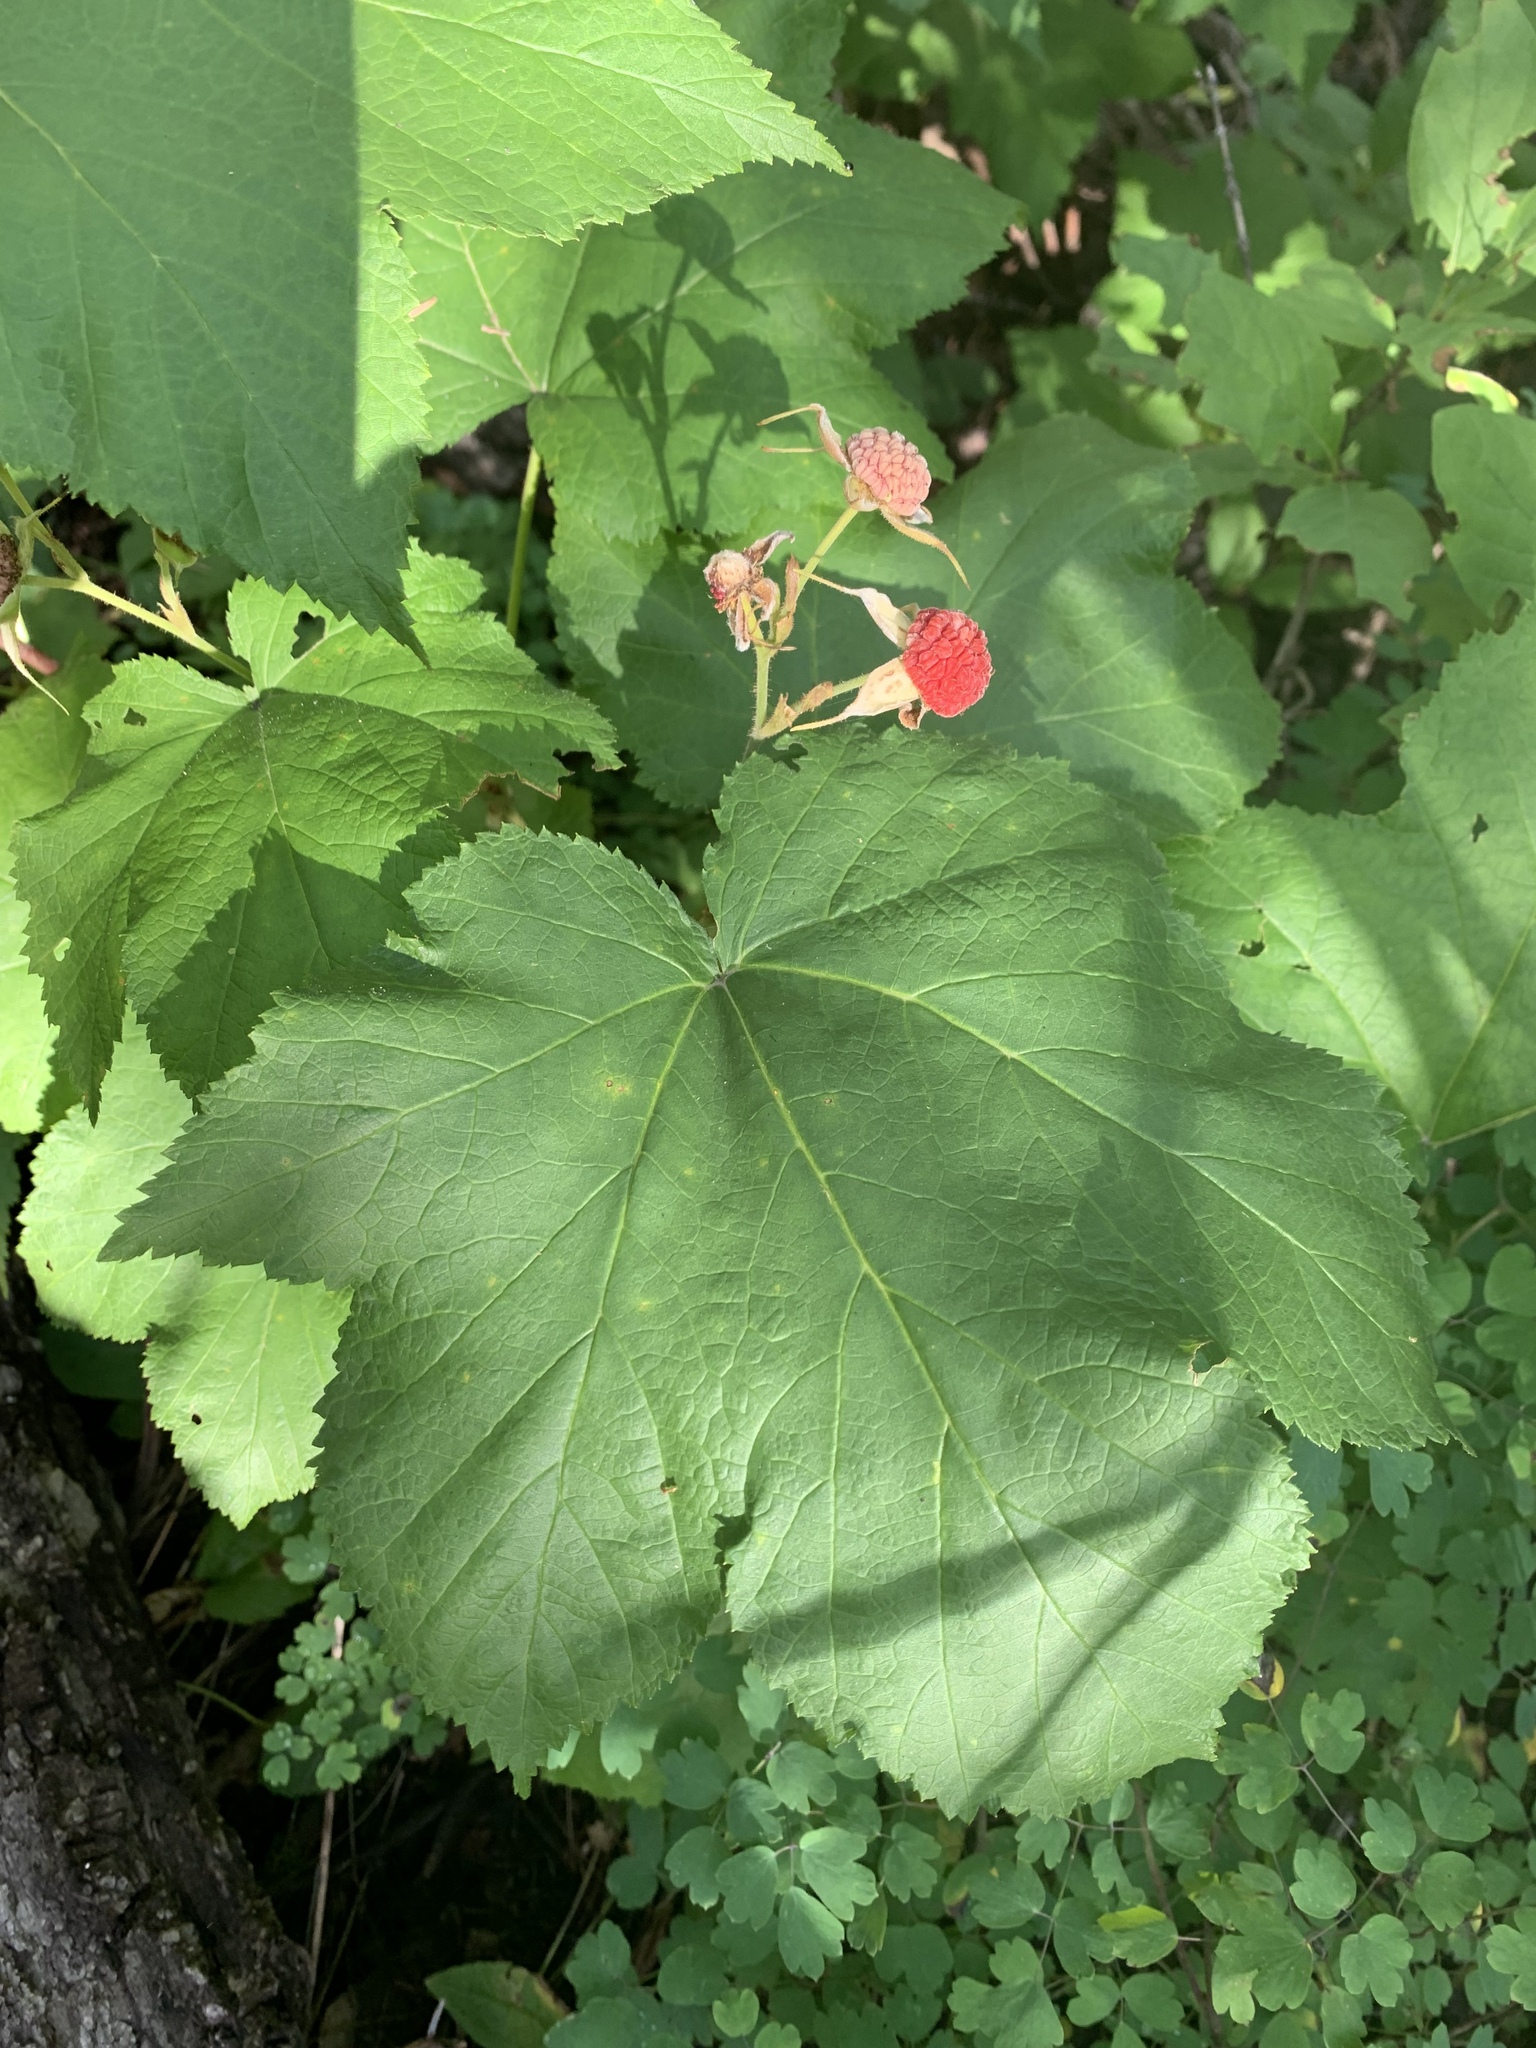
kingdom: Plantae
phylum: Tracheophyta
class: Magnoliopsida
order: Rosales
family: Rosaceae
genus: Rubus
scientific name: Rubus parviflorus
